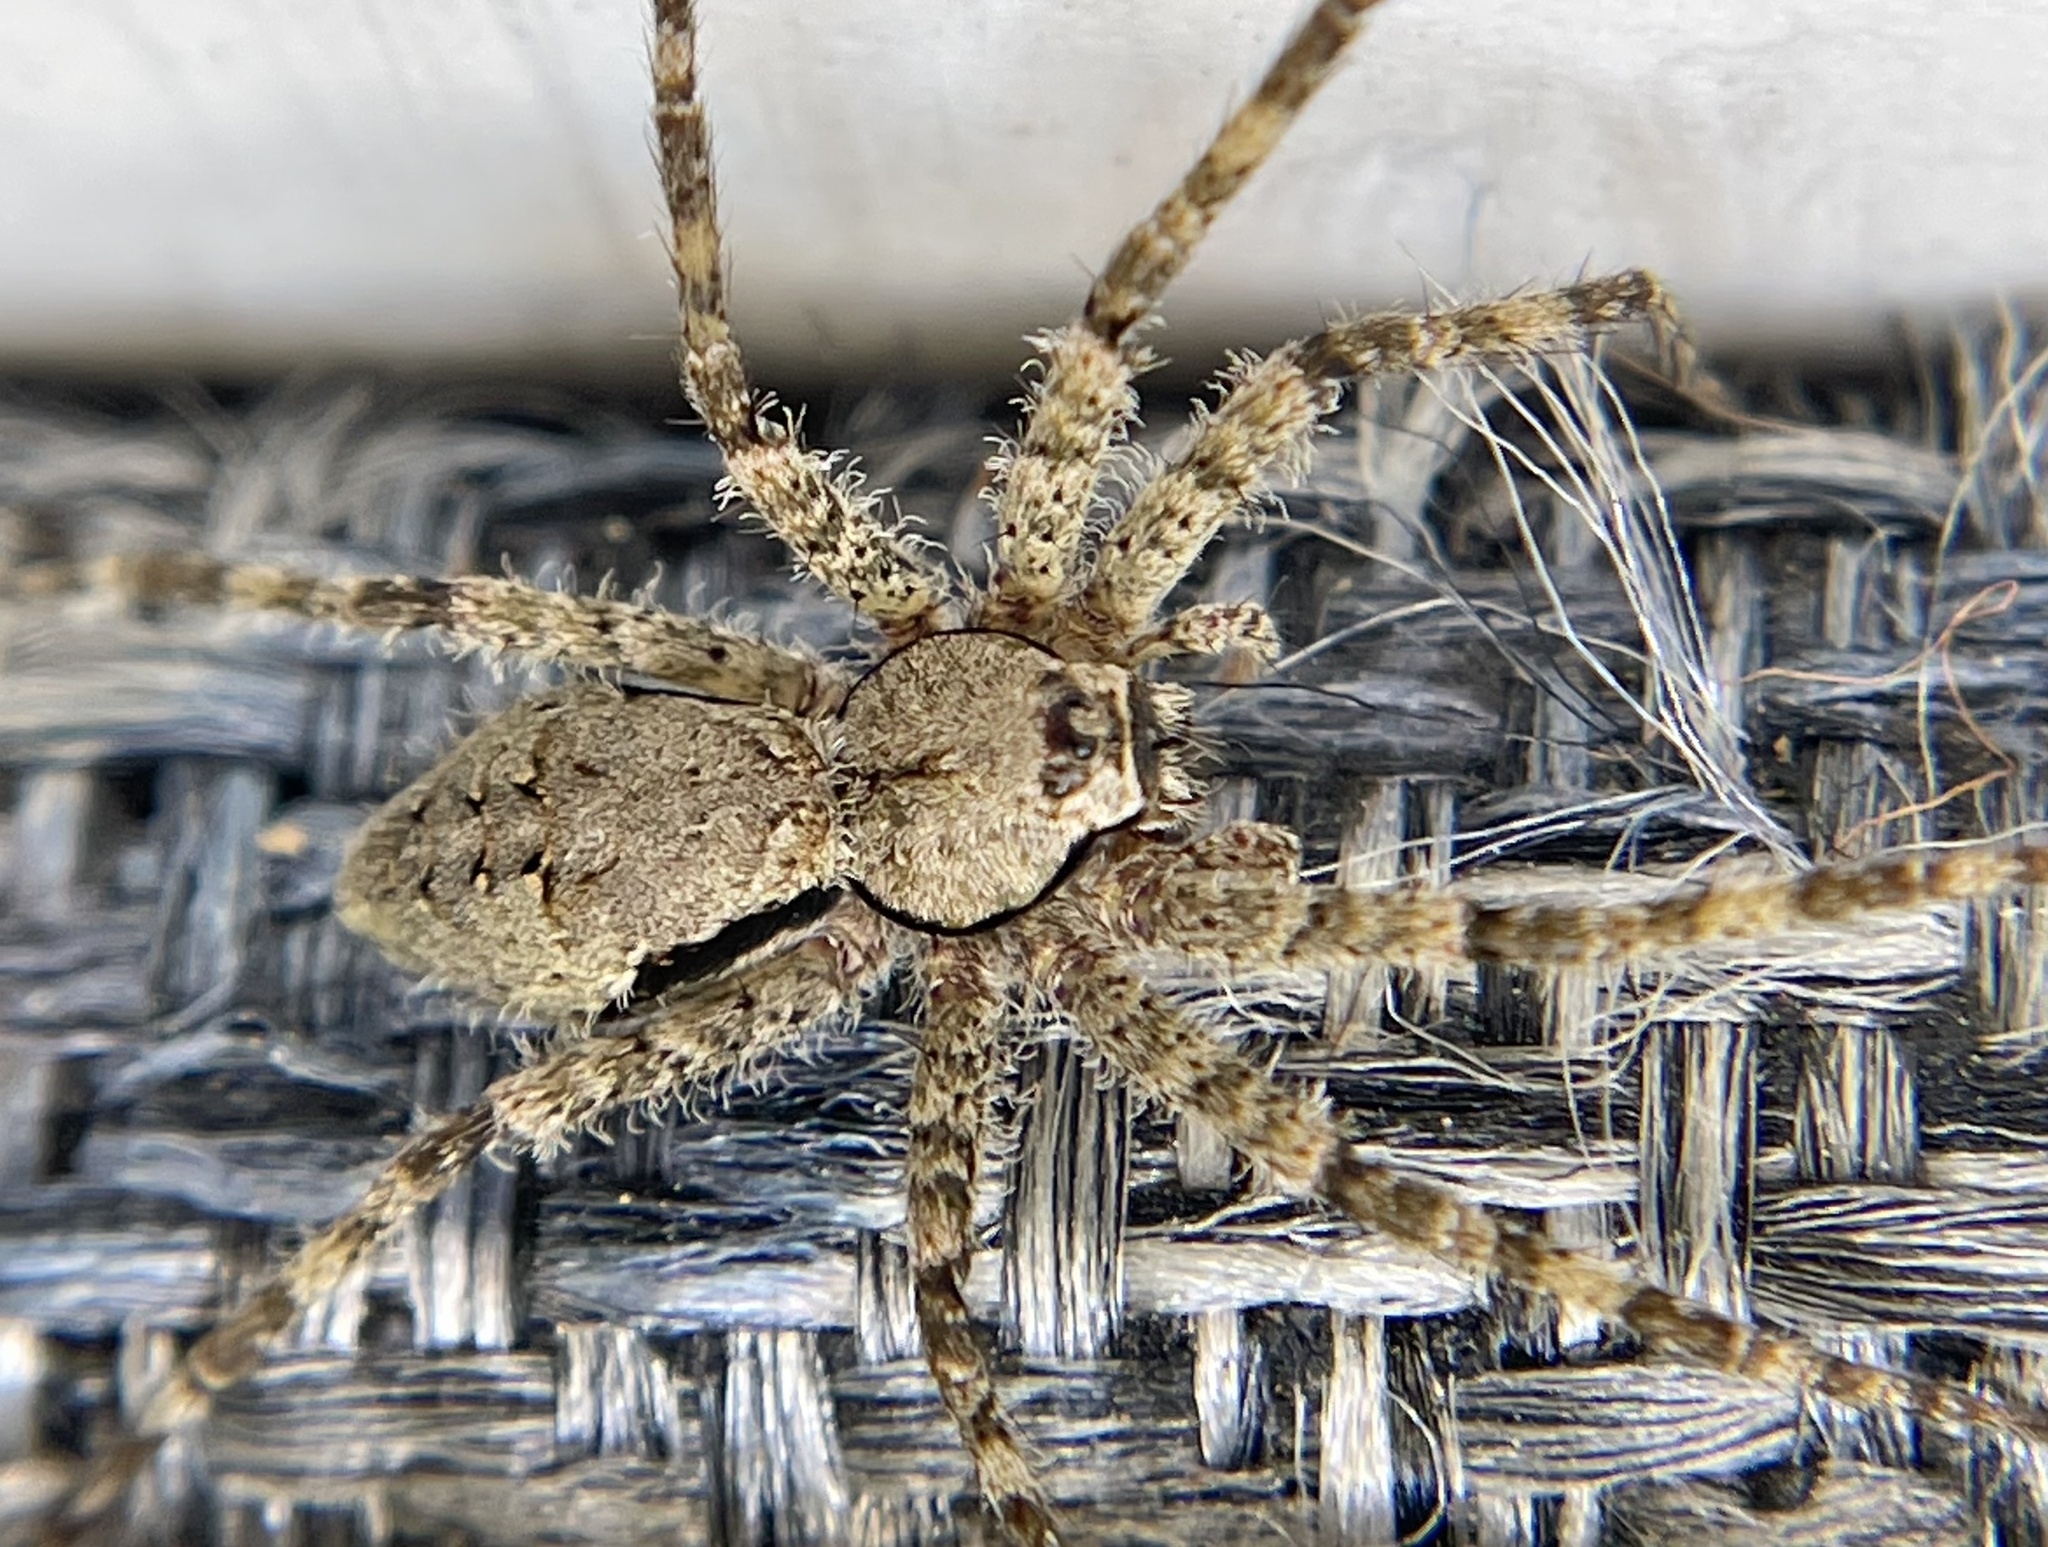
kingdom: Animalia
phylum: Arthropoda
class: Arachnida
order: Araneae
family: Pisauridae
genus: Dolomedes
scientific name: Dolomedes albineus
